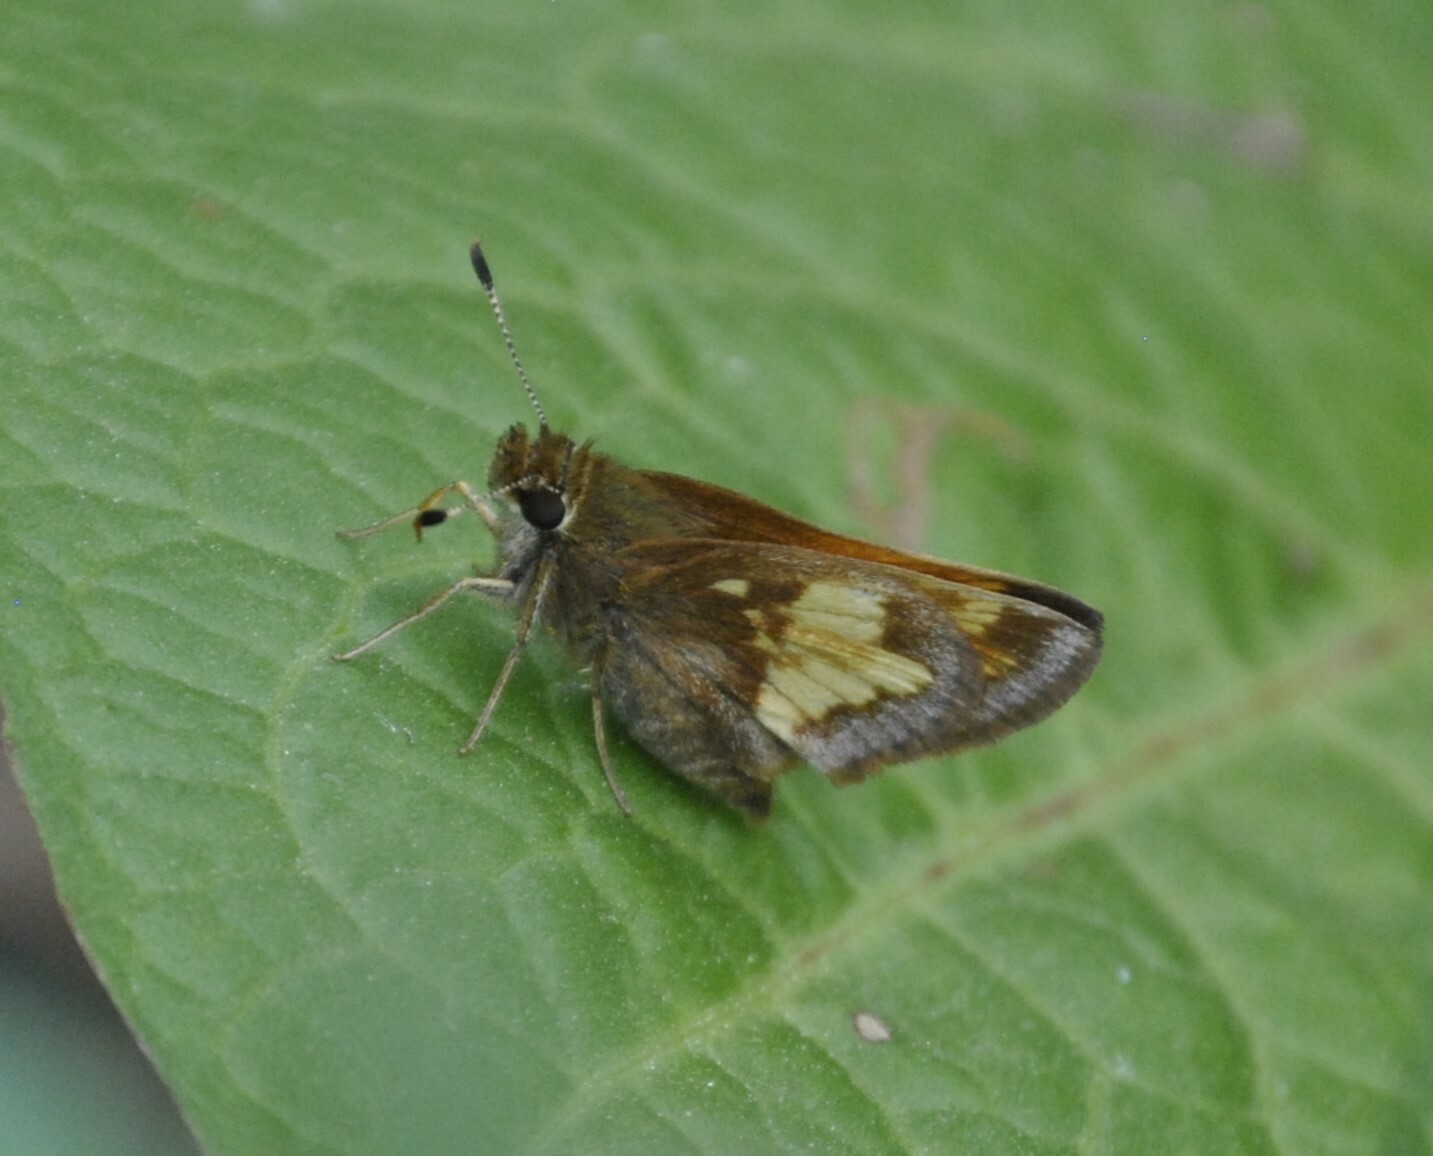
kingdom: Animalia
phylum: Arthropoda
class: Insecta
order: Lepidoptera
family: Hesperiidae
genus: Lon
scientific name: Lon hobomok
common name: Hobomok skipper
